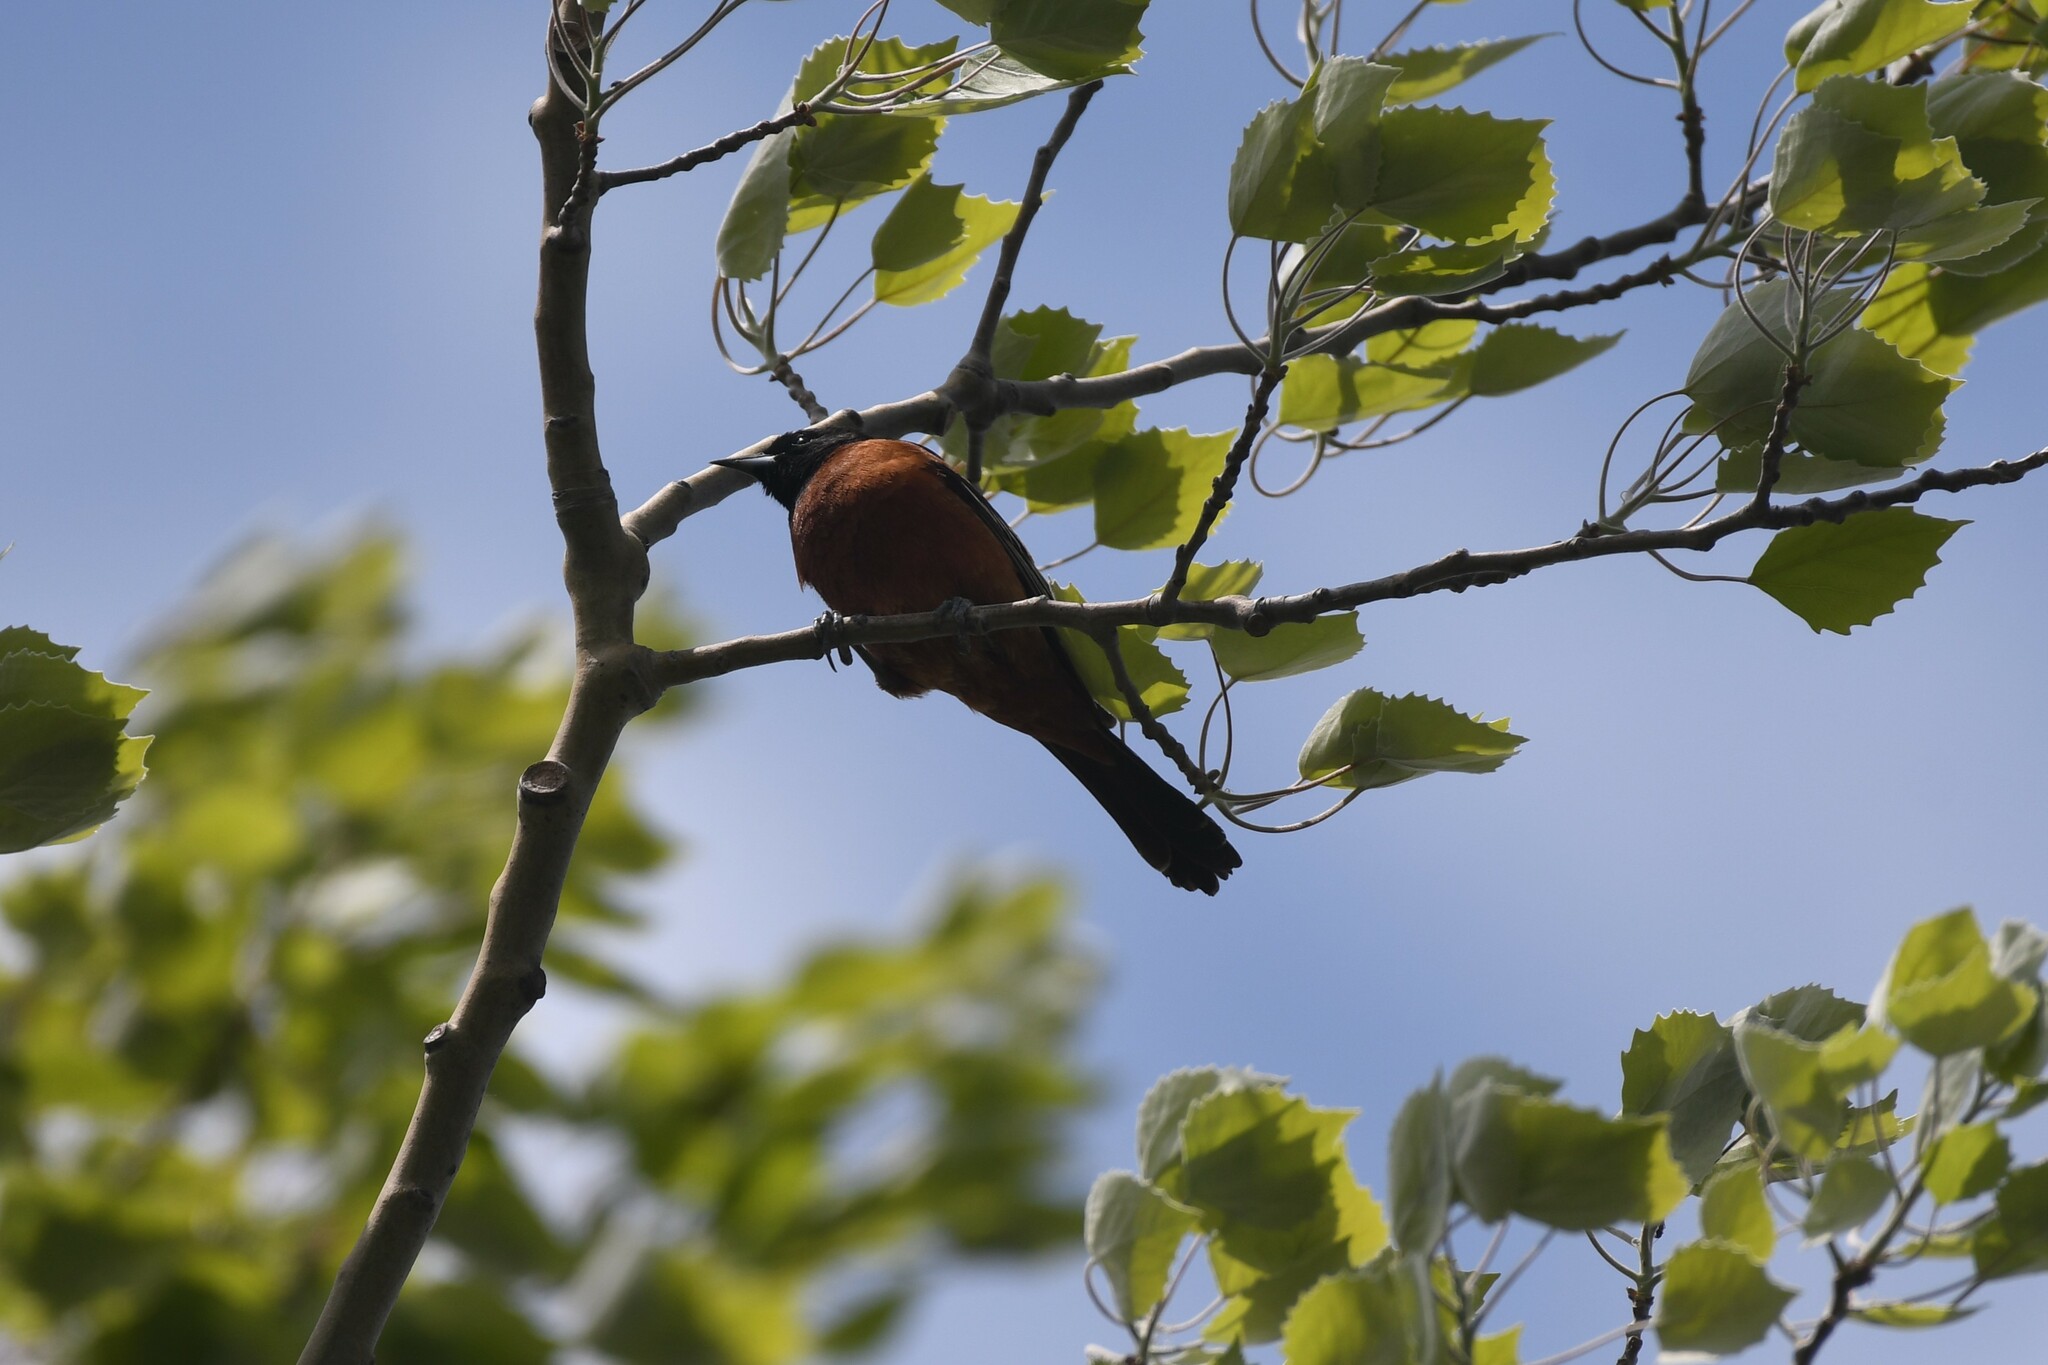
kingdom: Animalia
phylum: Chordata
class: Aves
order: Passeriformes
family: Icteridae
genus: Icterus
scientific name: Icterus spurius
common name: Orchard oriole
